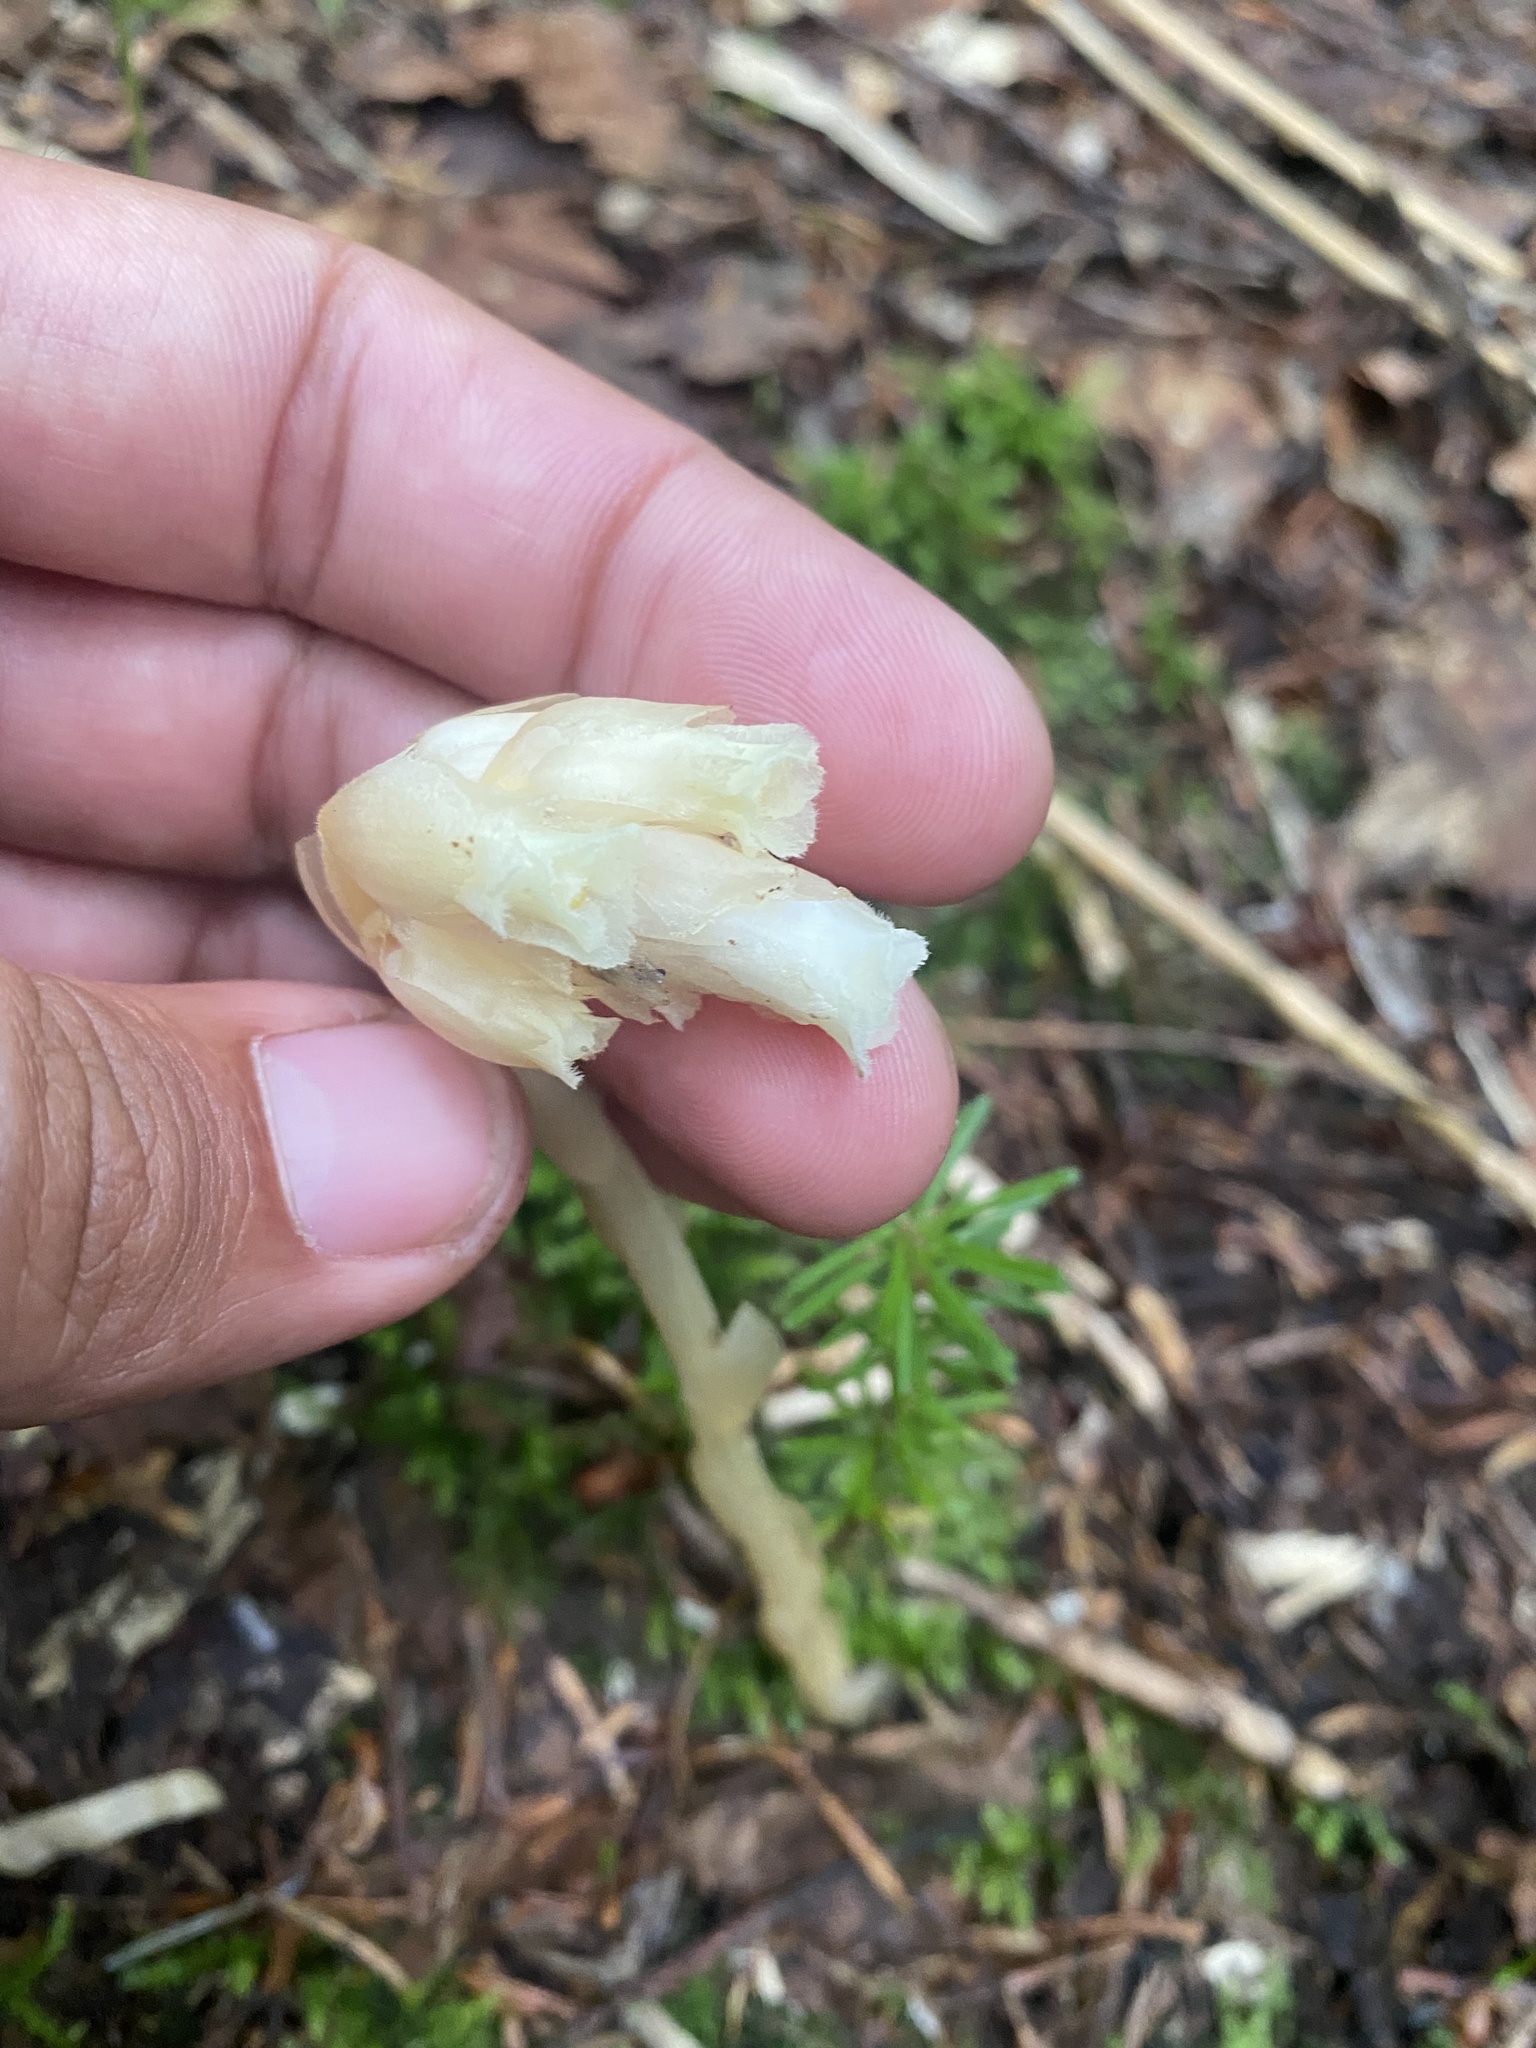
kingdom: Plantae
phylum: Tracheophyta
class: Magnoliopsida
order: Ericales
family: Ericaceae
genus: Hypopitys
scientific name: Hypopitys monotropa
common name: Yellow bird's-nest
